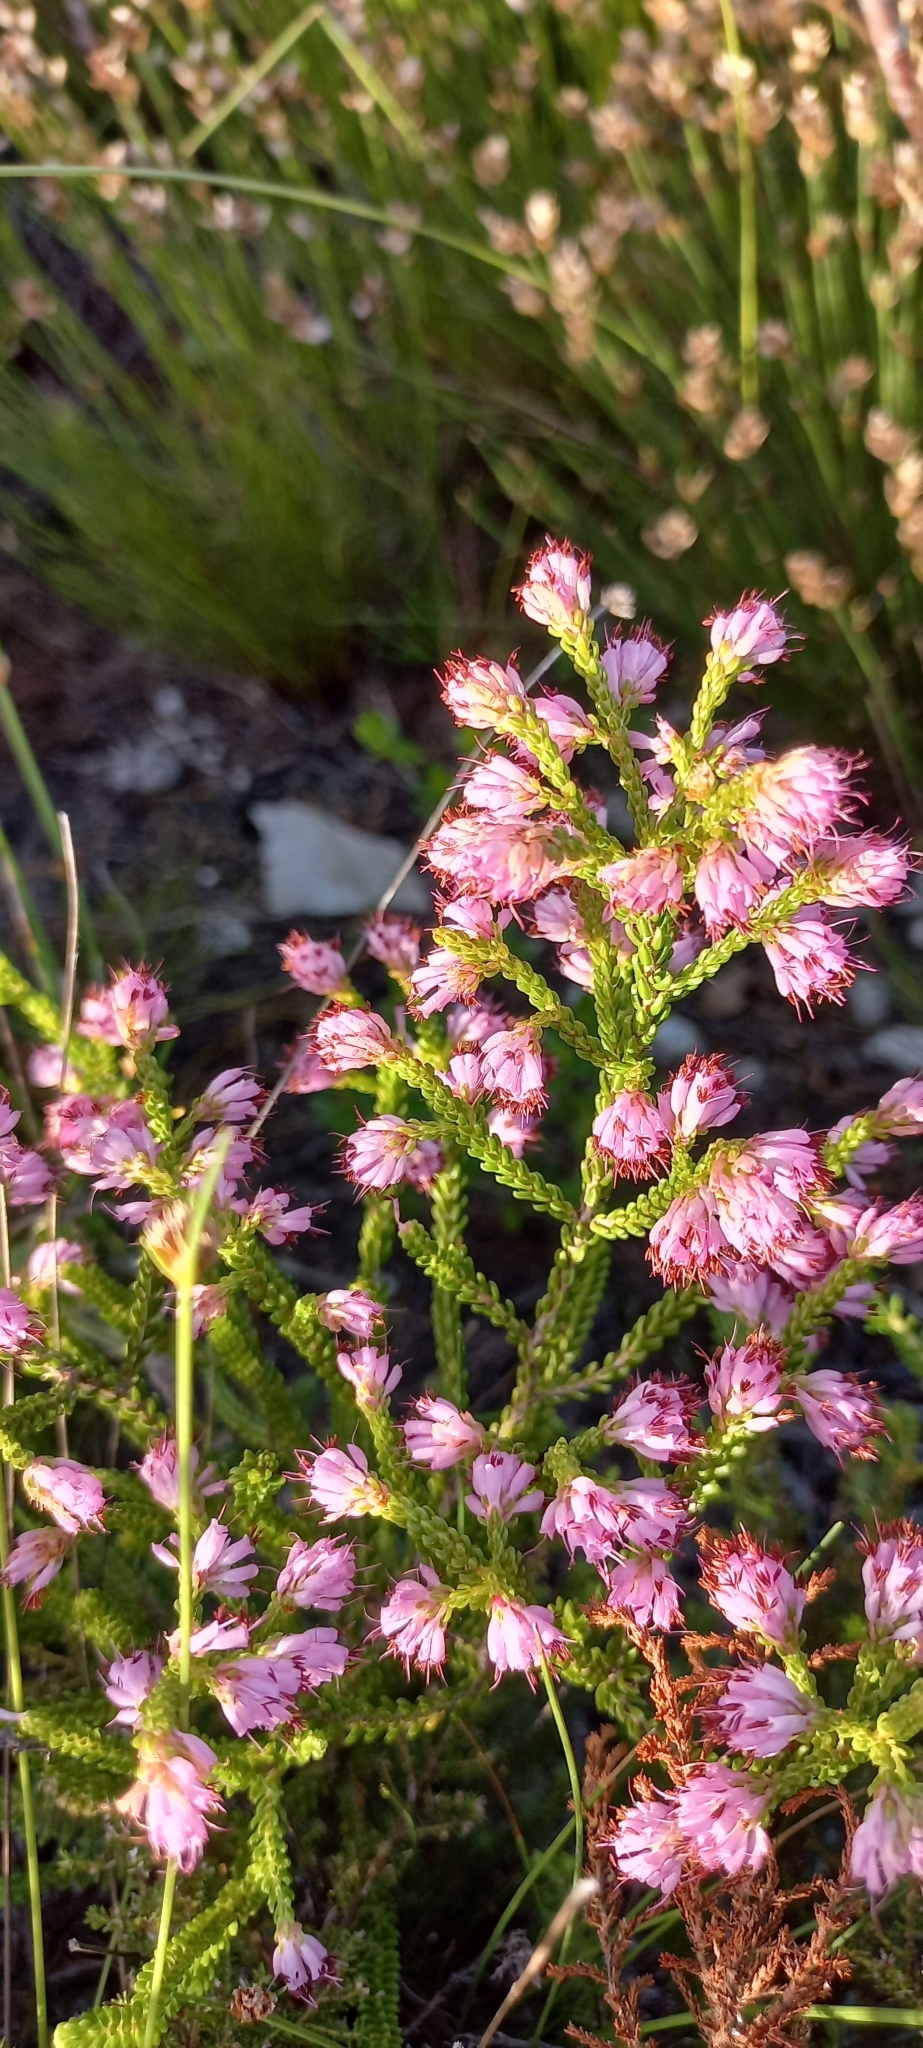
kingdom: Plantae
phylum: Tracheophyta
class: Magnoliopsida
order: Ericales
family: Ericaceae
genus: Erica
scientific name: Erica labialis
